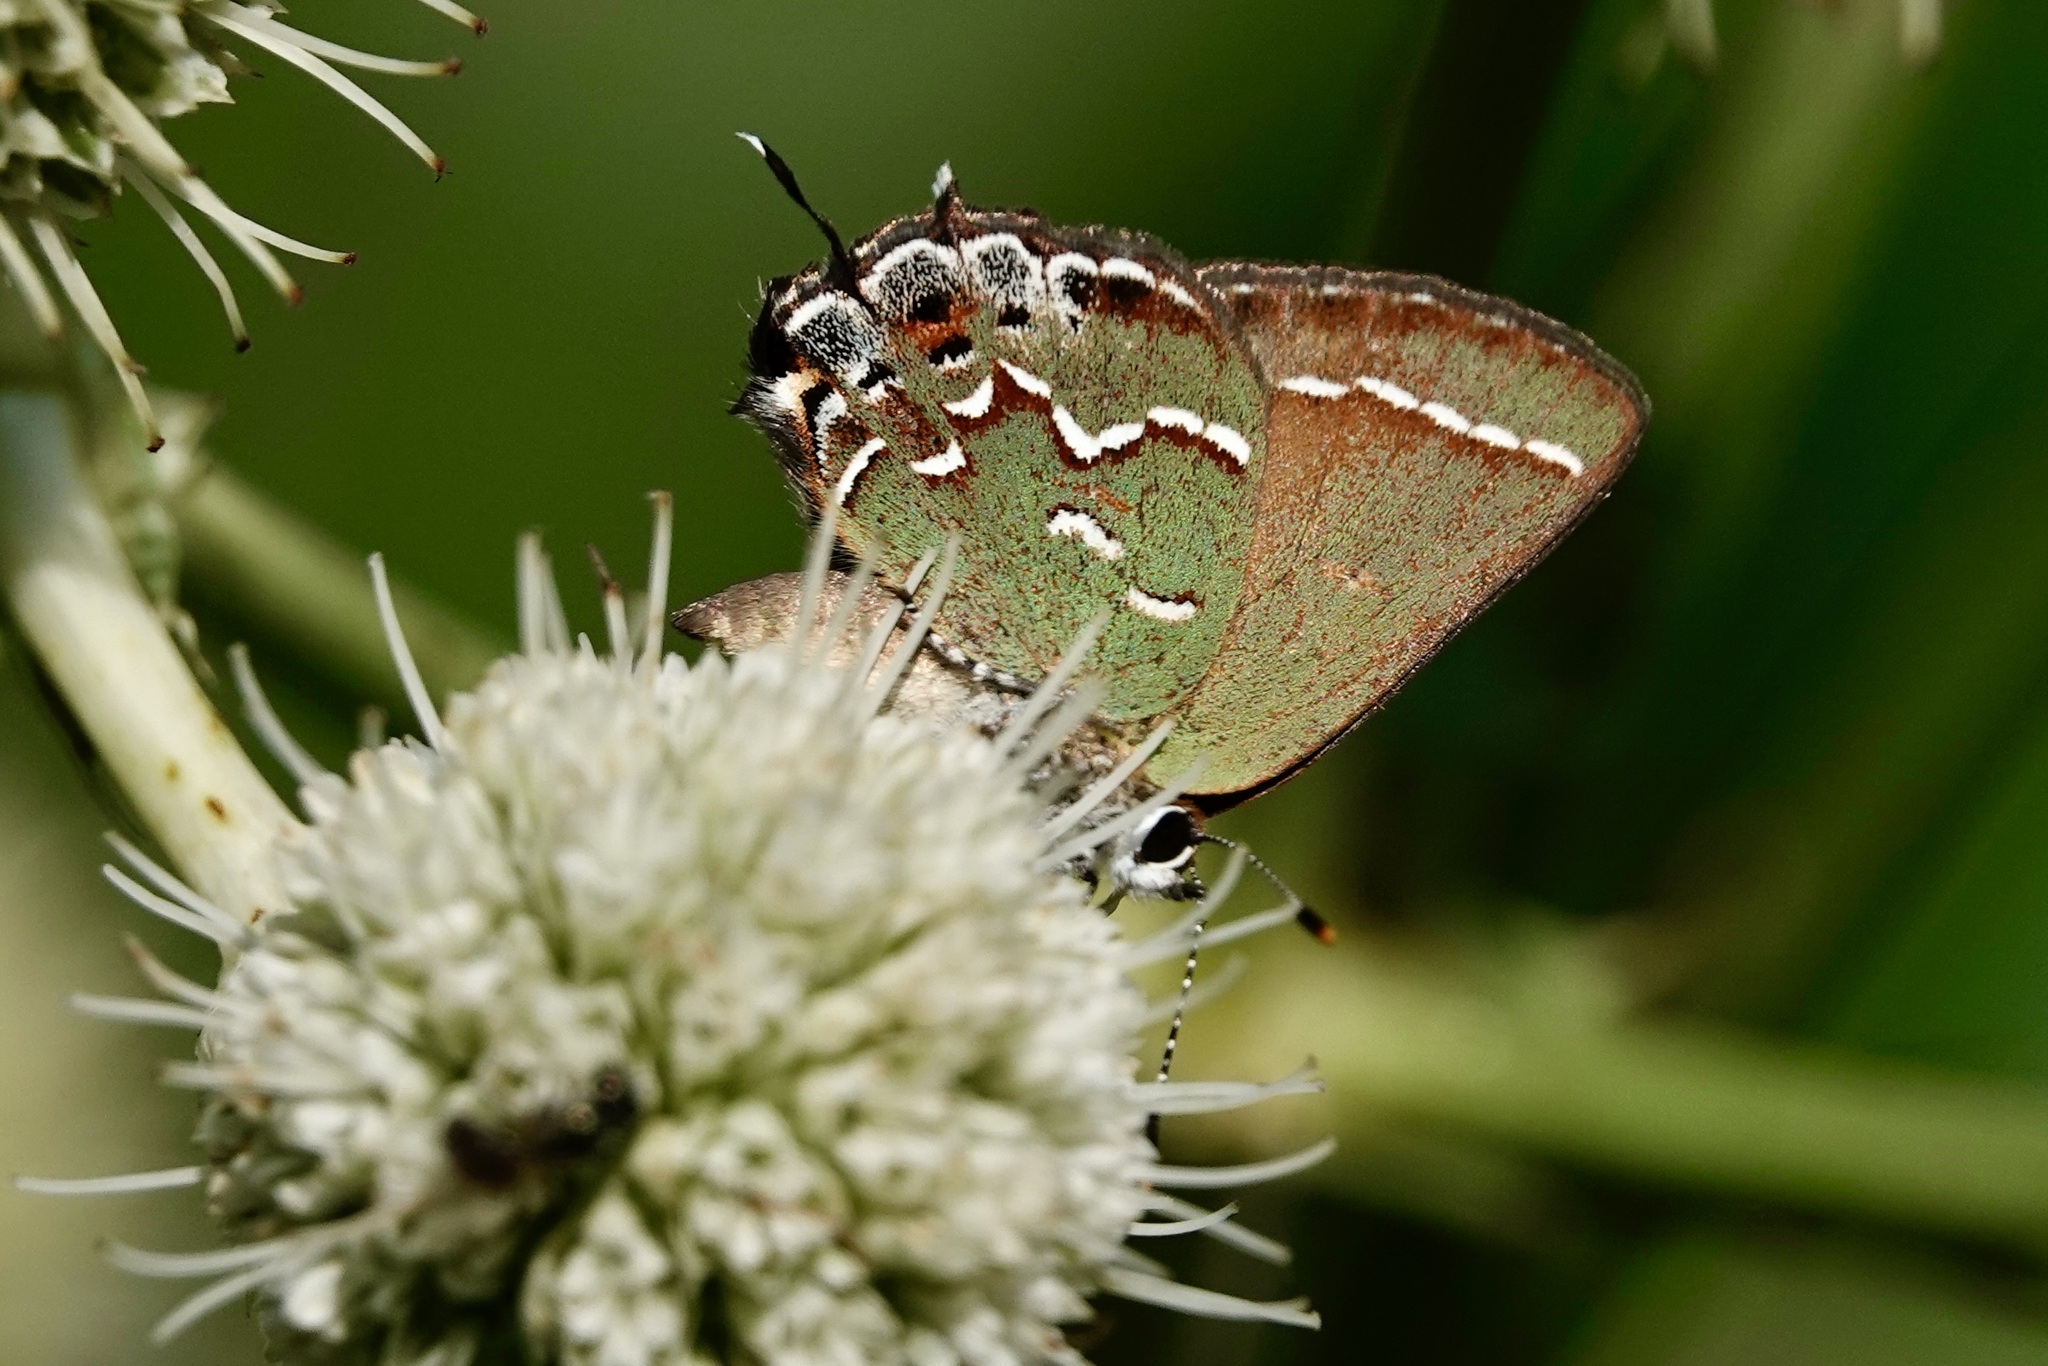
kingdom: Animalia
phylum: Arthropoda
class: Insecta
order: Lepidoptera
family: Lycaenidae
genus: Mitoura
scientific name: Mitoura gryneus
